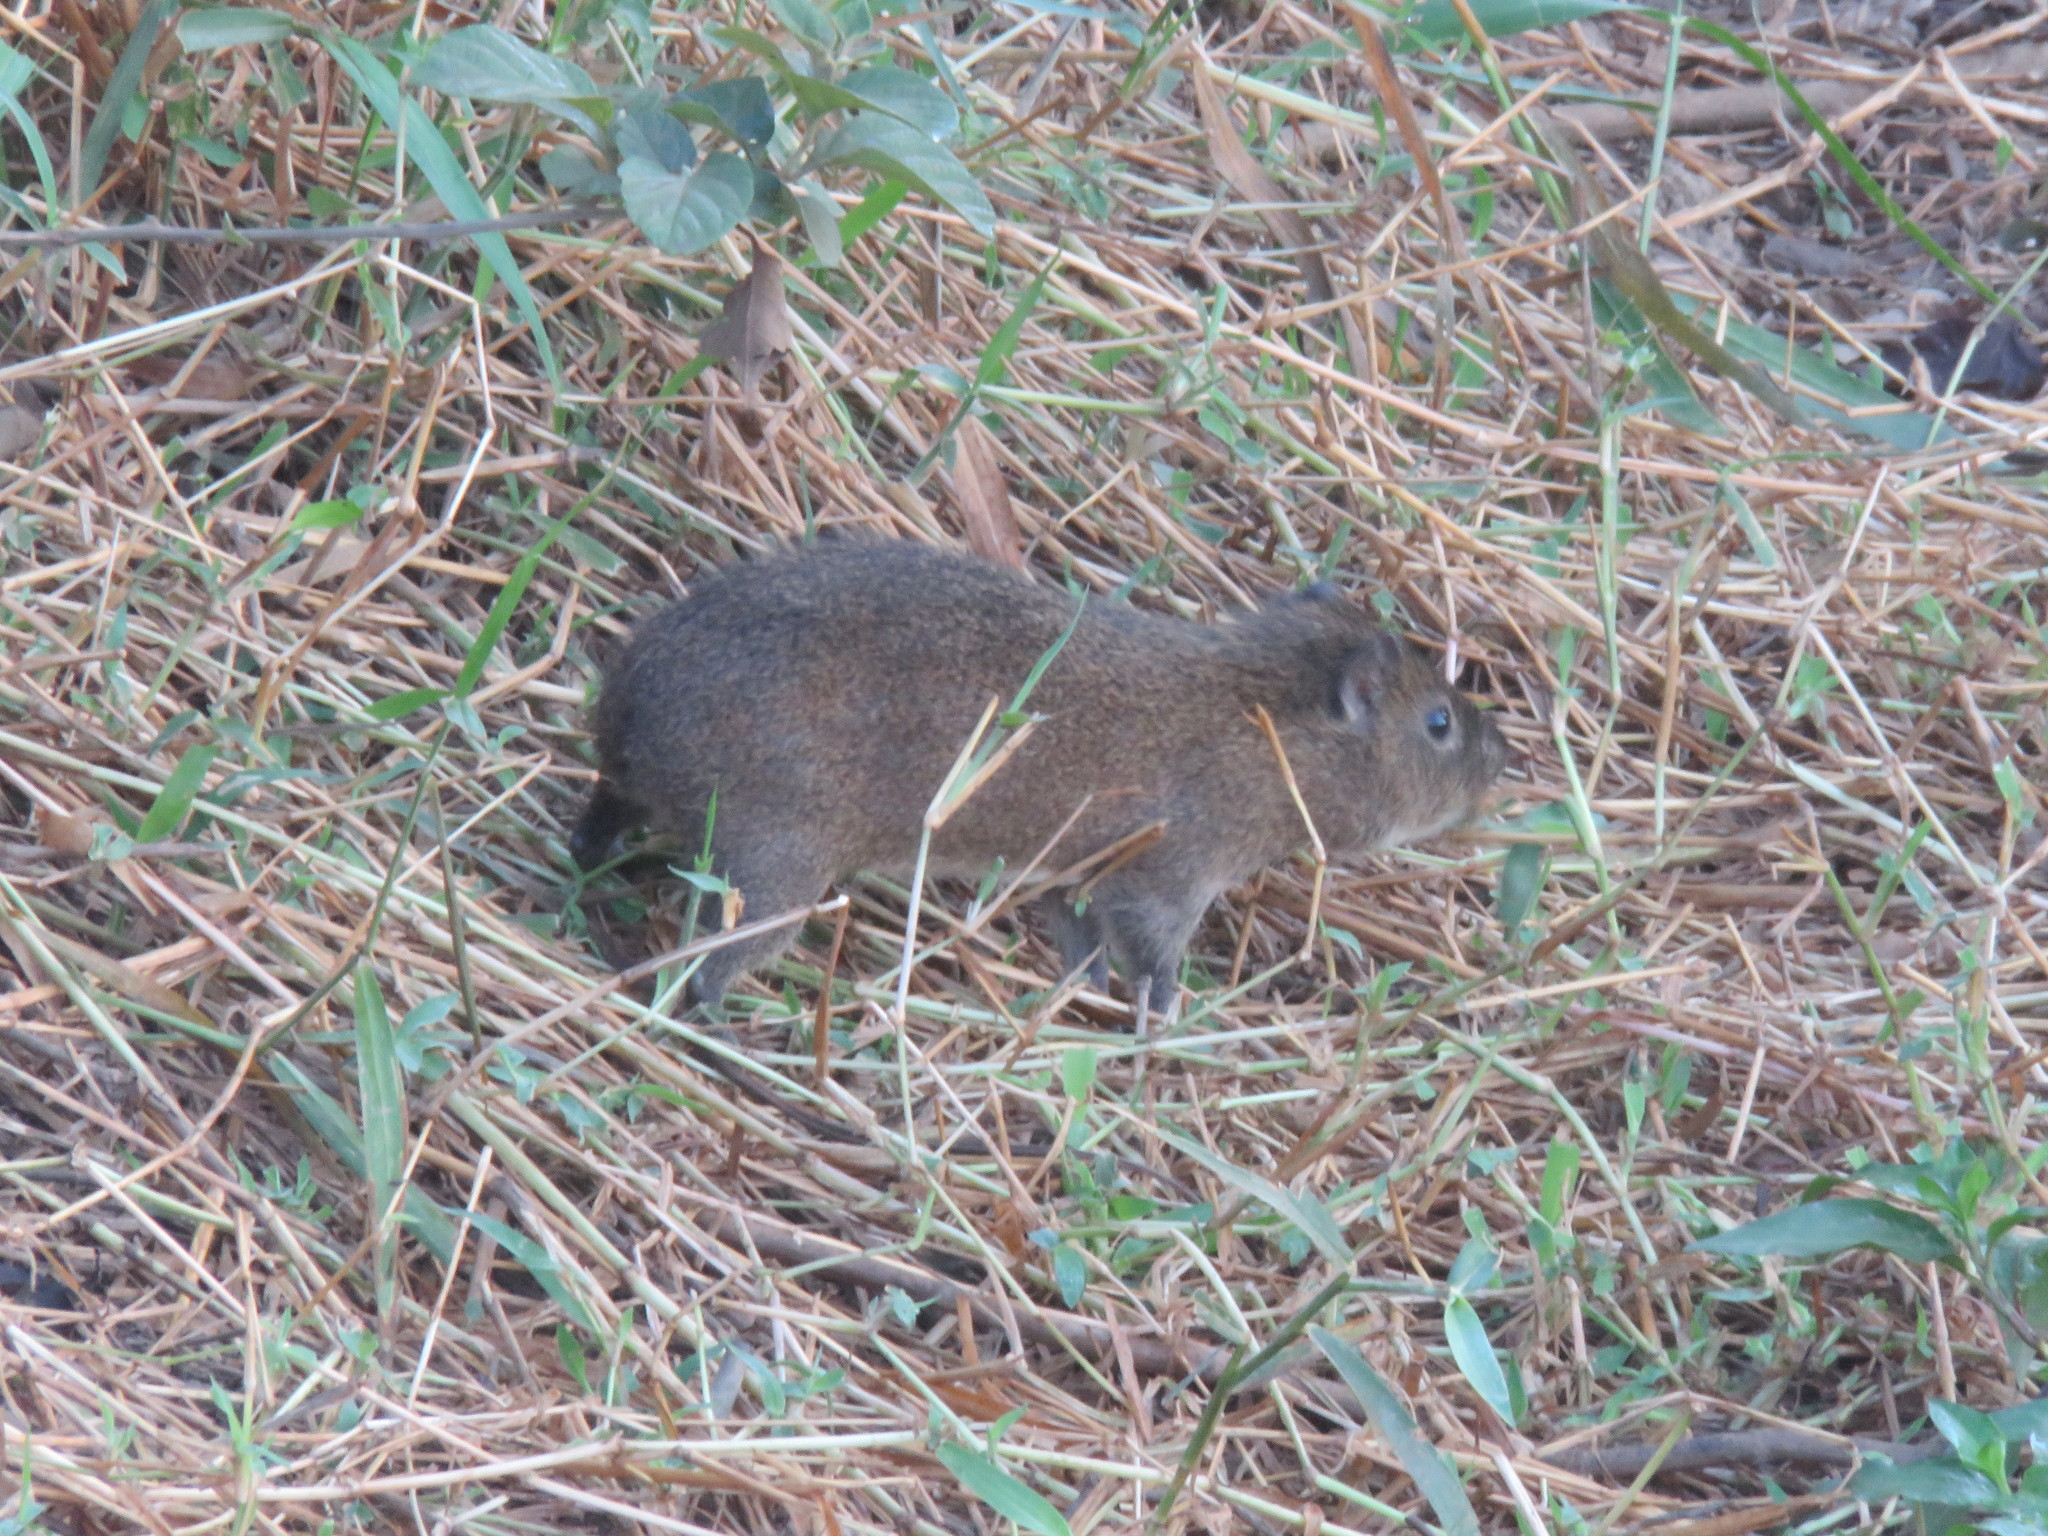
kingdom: Animalia
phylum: Chordata
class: Mammalia
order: Rodentia
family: Caviidae
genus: Cavia
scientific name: Cavia aperea
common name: Brazilian guinea pig
